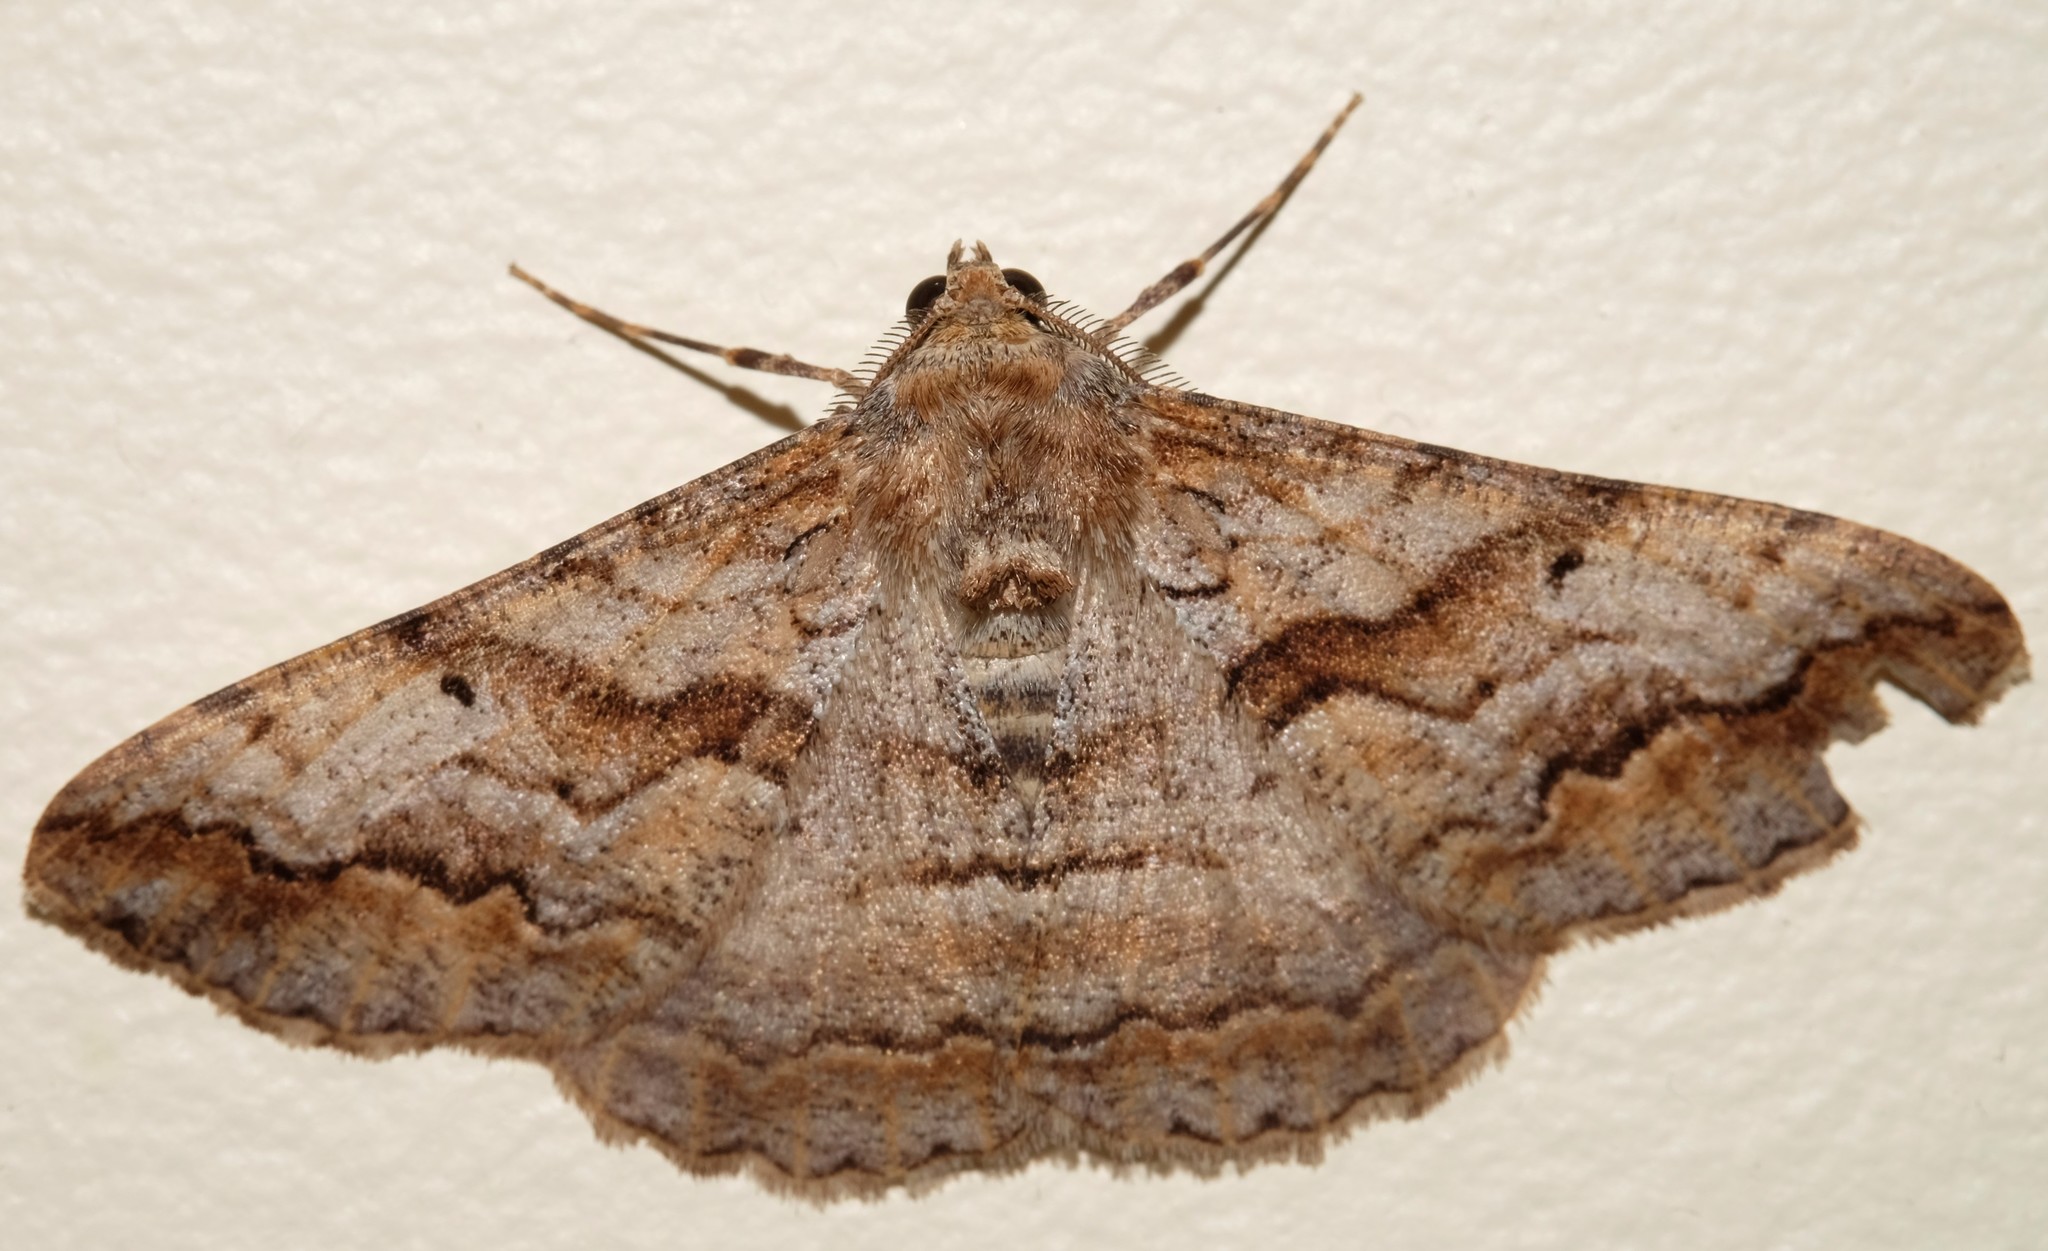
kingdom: Animalia
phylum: Arthropoda
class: Insecta
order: Lepidoptera
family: Geometridae
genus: Gastrinodes
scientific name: Gastrinodes bitaeniaria
